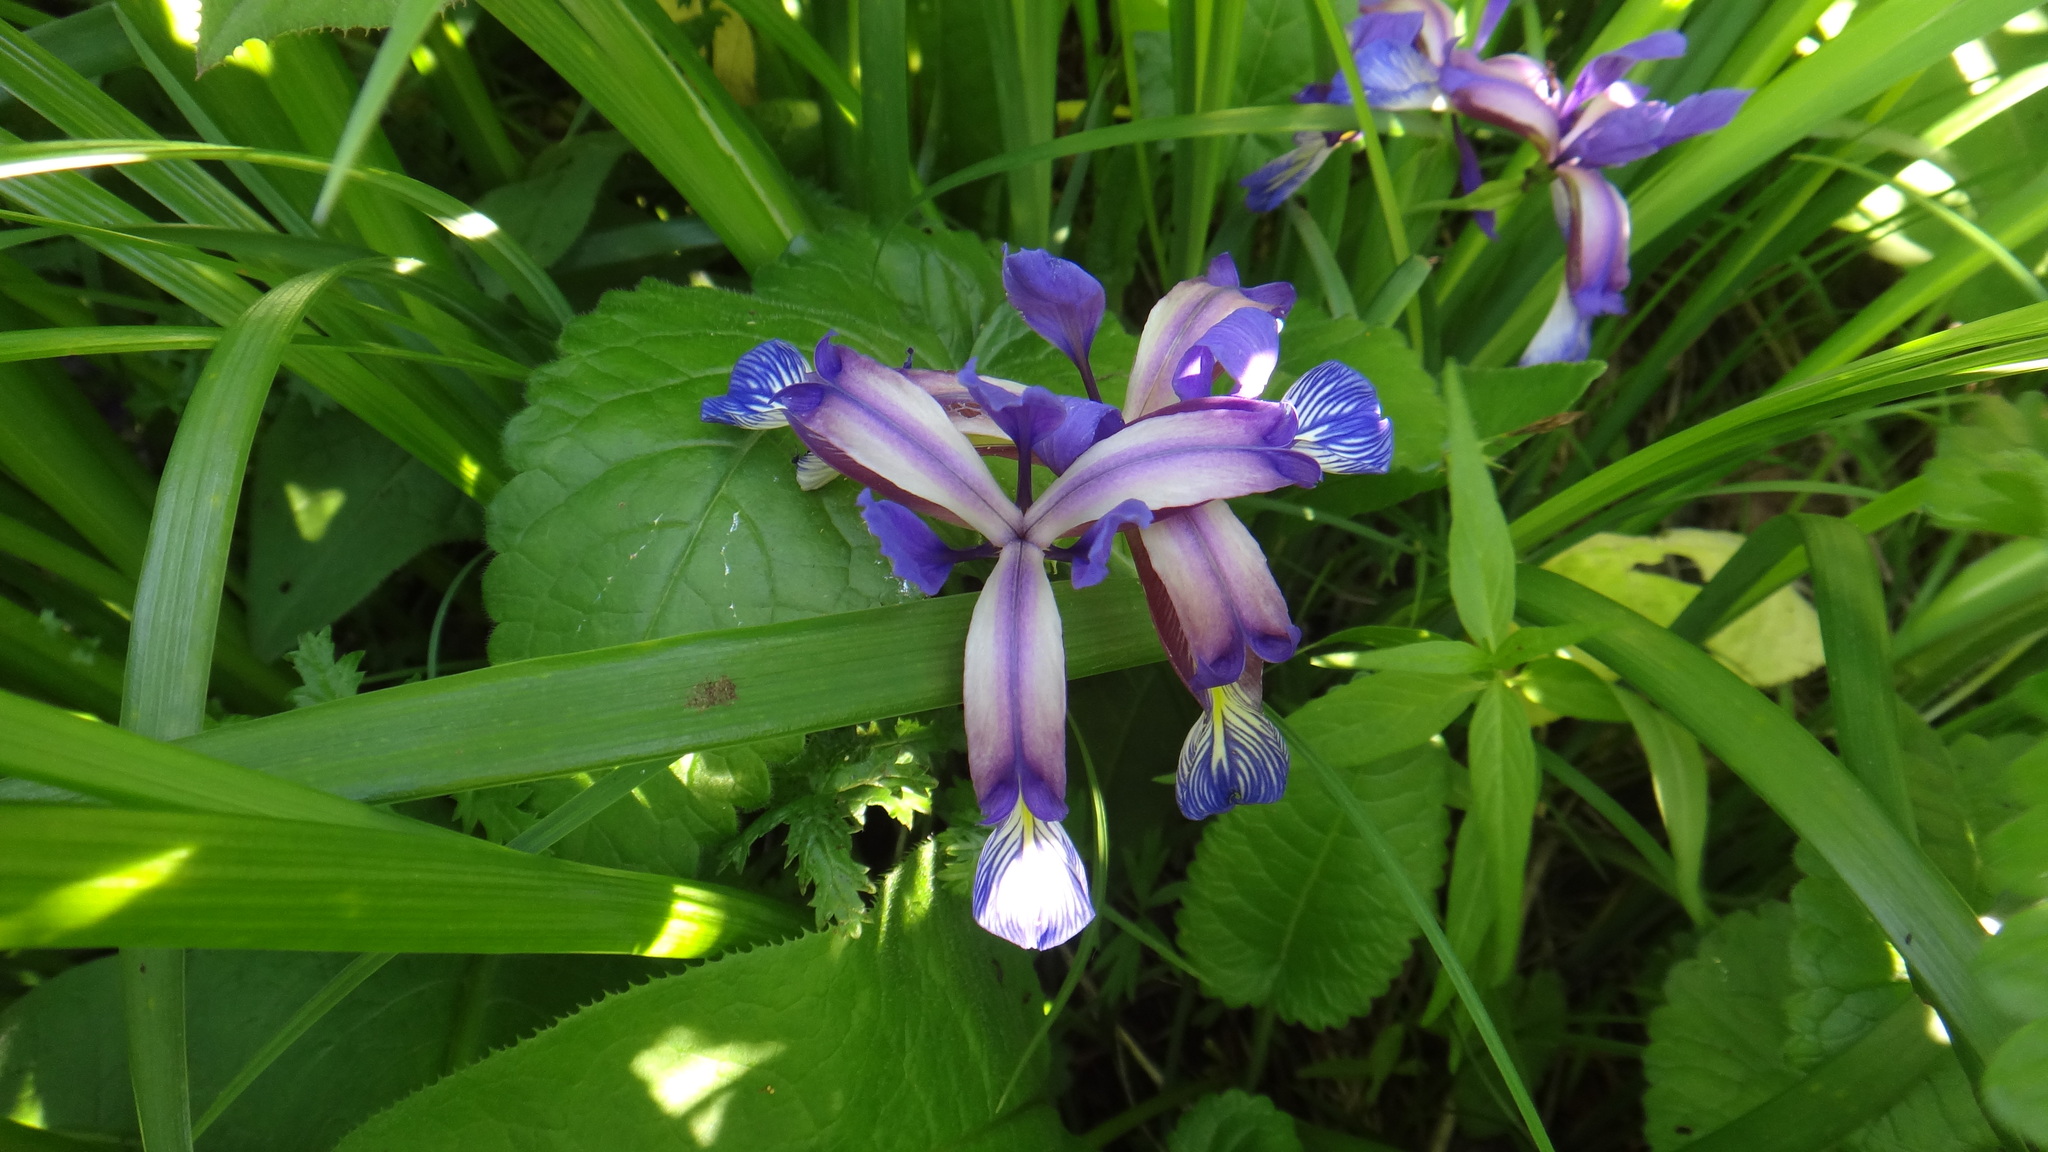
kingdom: Plantae
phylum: Tracheophyta
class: Liliopsida
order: Asparagales
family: Iridaceae
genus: Iris
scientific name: Iris graminea
